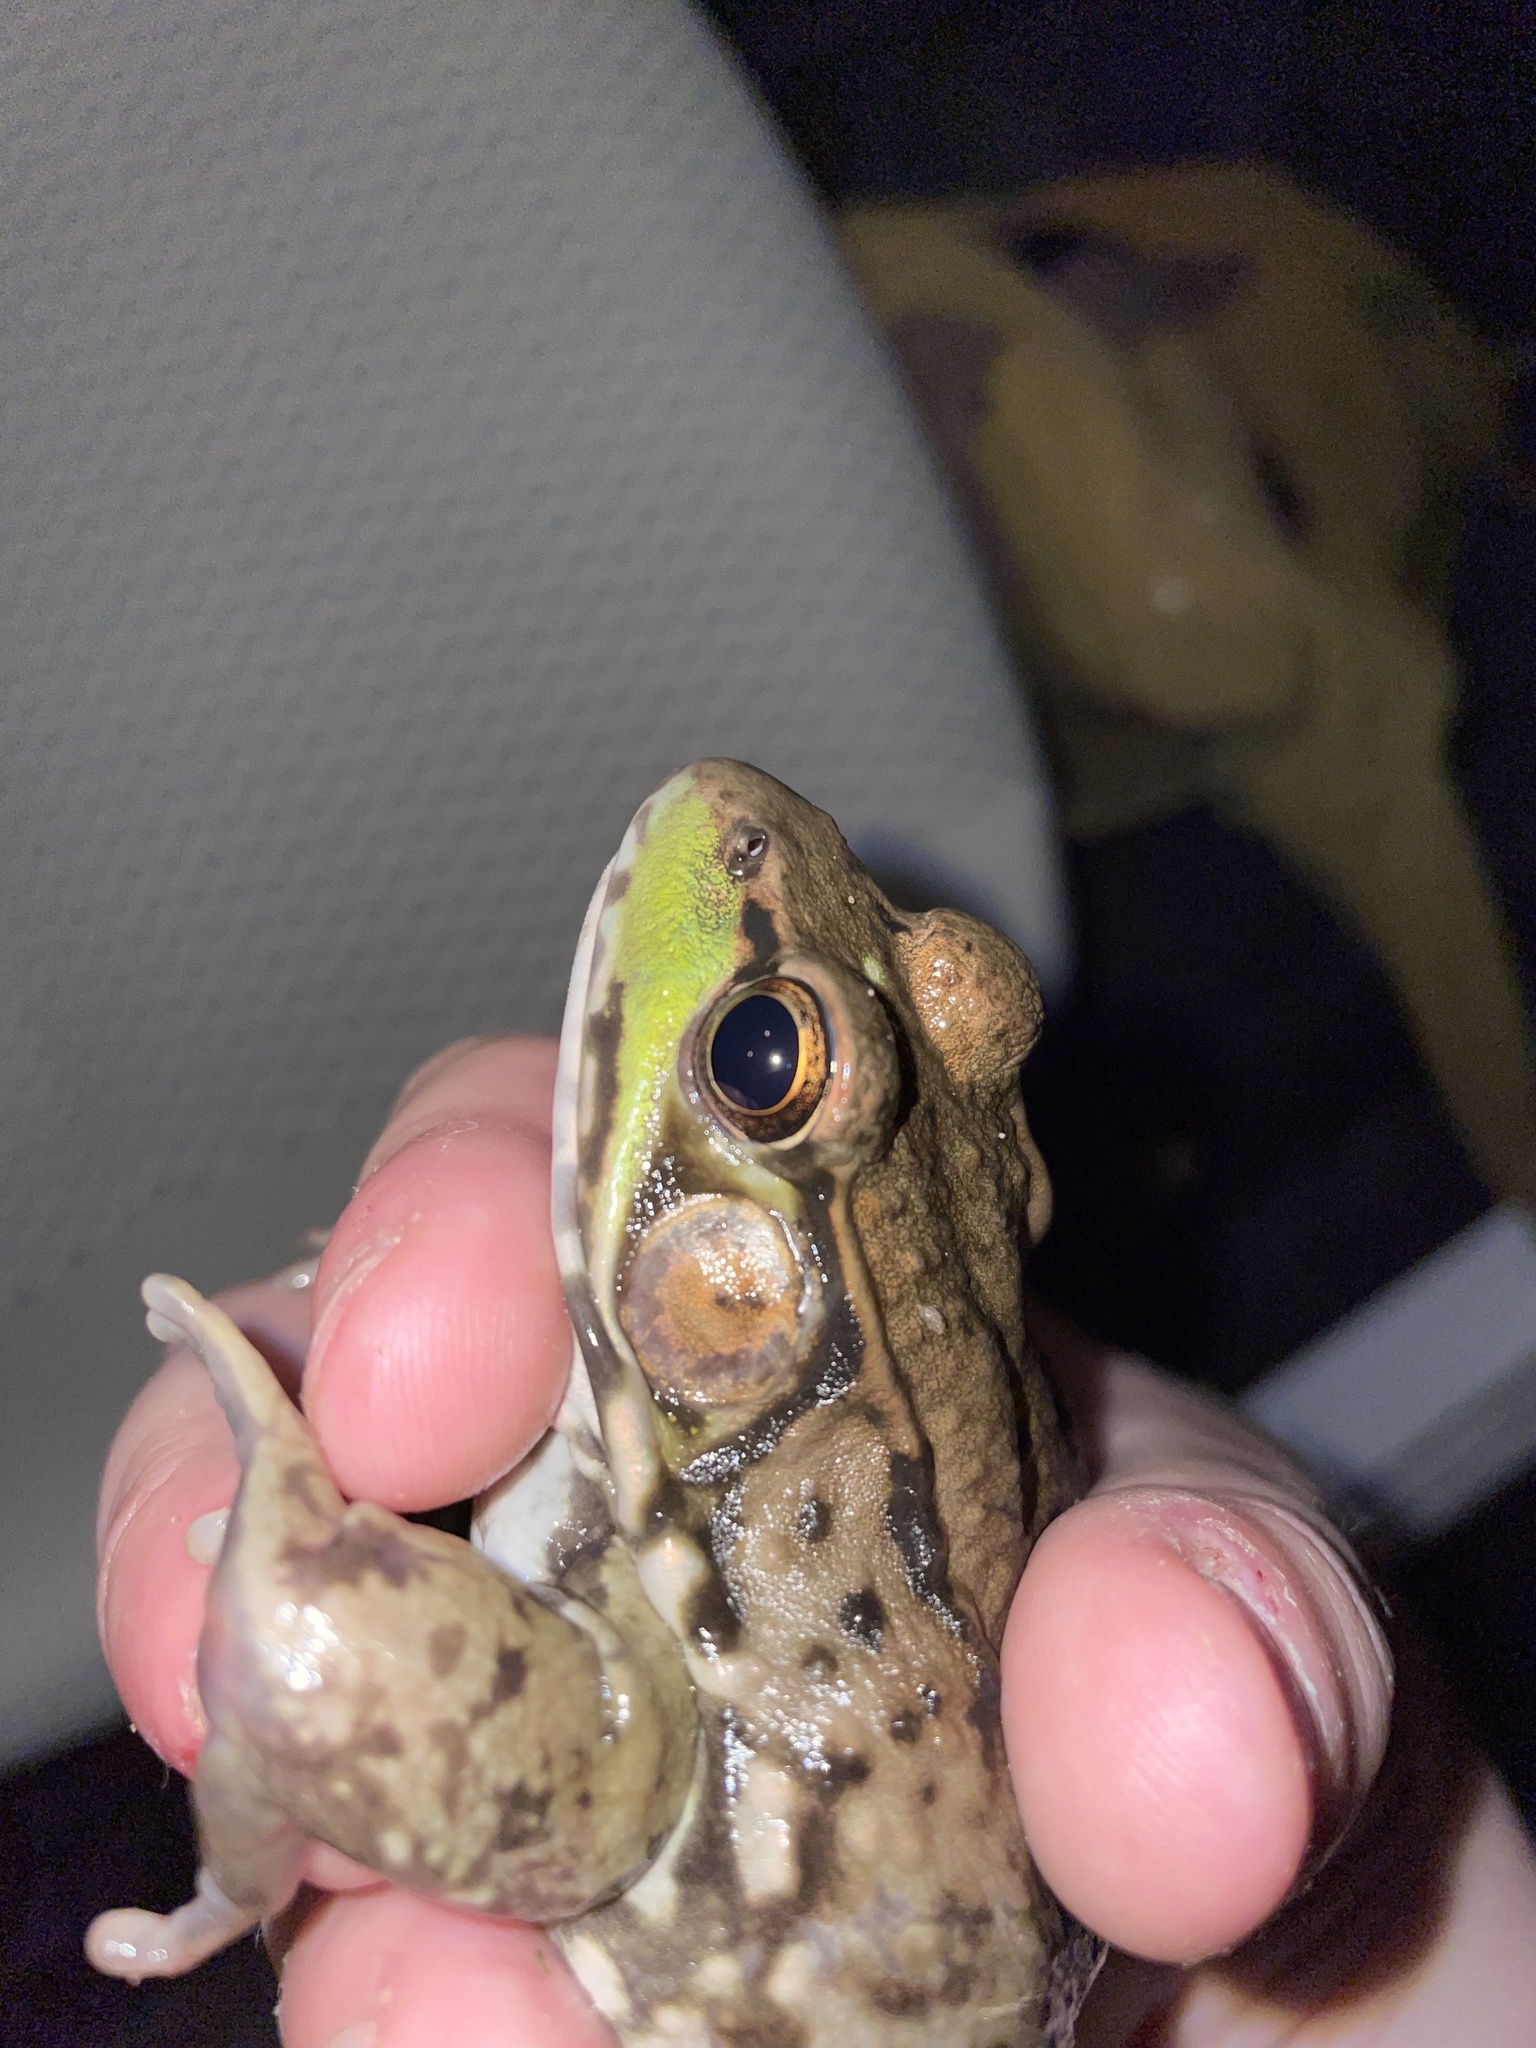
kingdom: Animalia
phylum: Chordata
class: Amphibia
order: Anura
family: Ranidae
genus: Lithobates
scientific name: Lithobates clamitans
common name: Green frog
